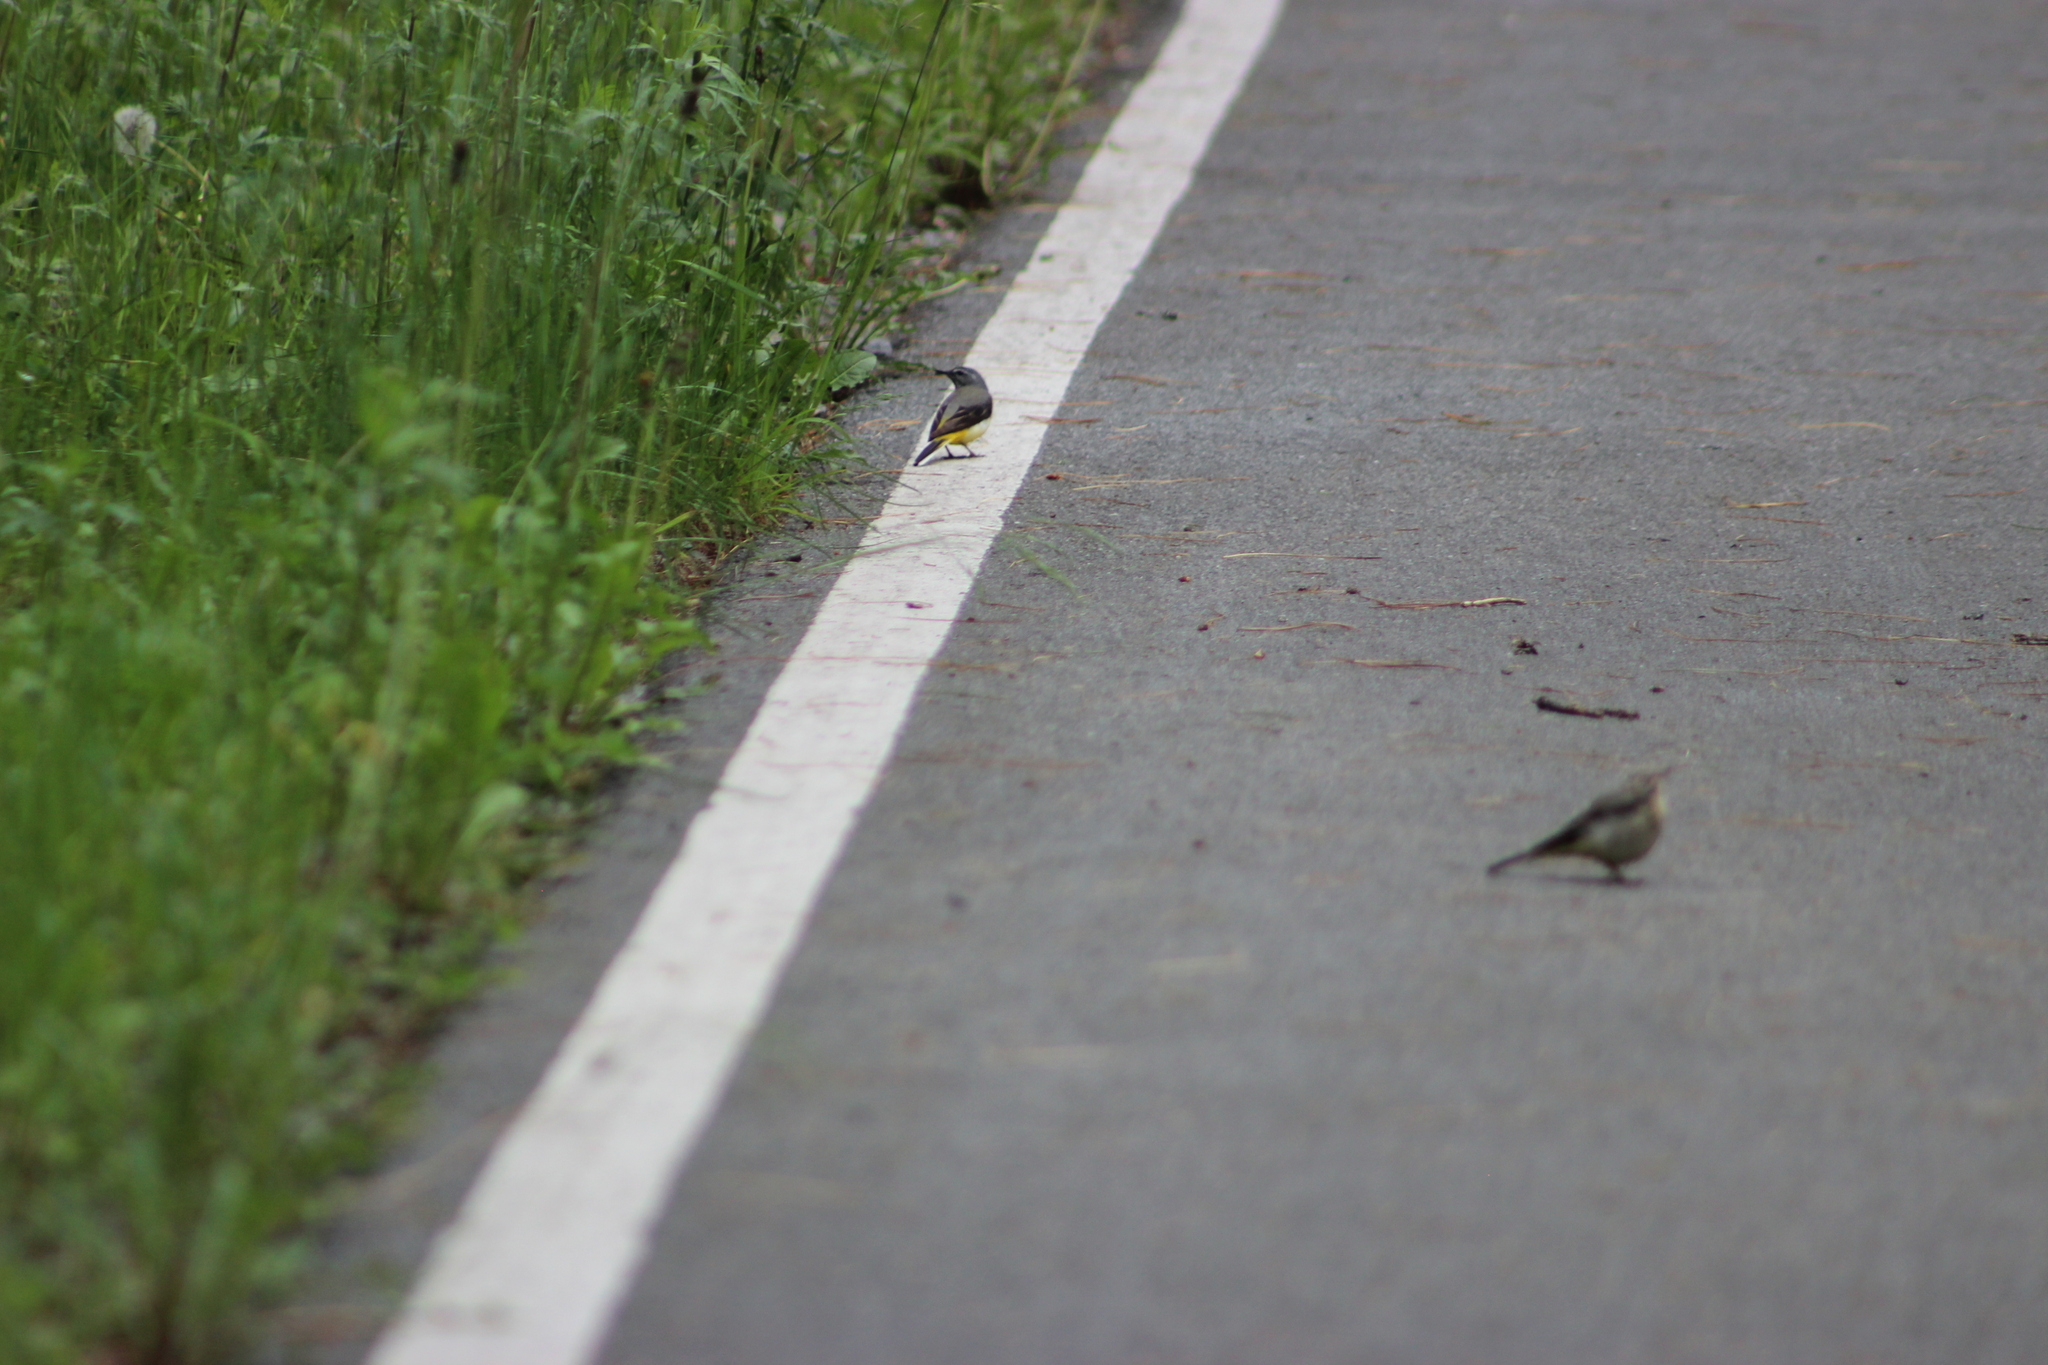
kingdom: Animalia
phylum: Chordata
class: Aves
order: Passeriformes
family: Motacillidae
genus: Motacilla
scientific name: Motacilla cinerea
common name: Grey wagtail
